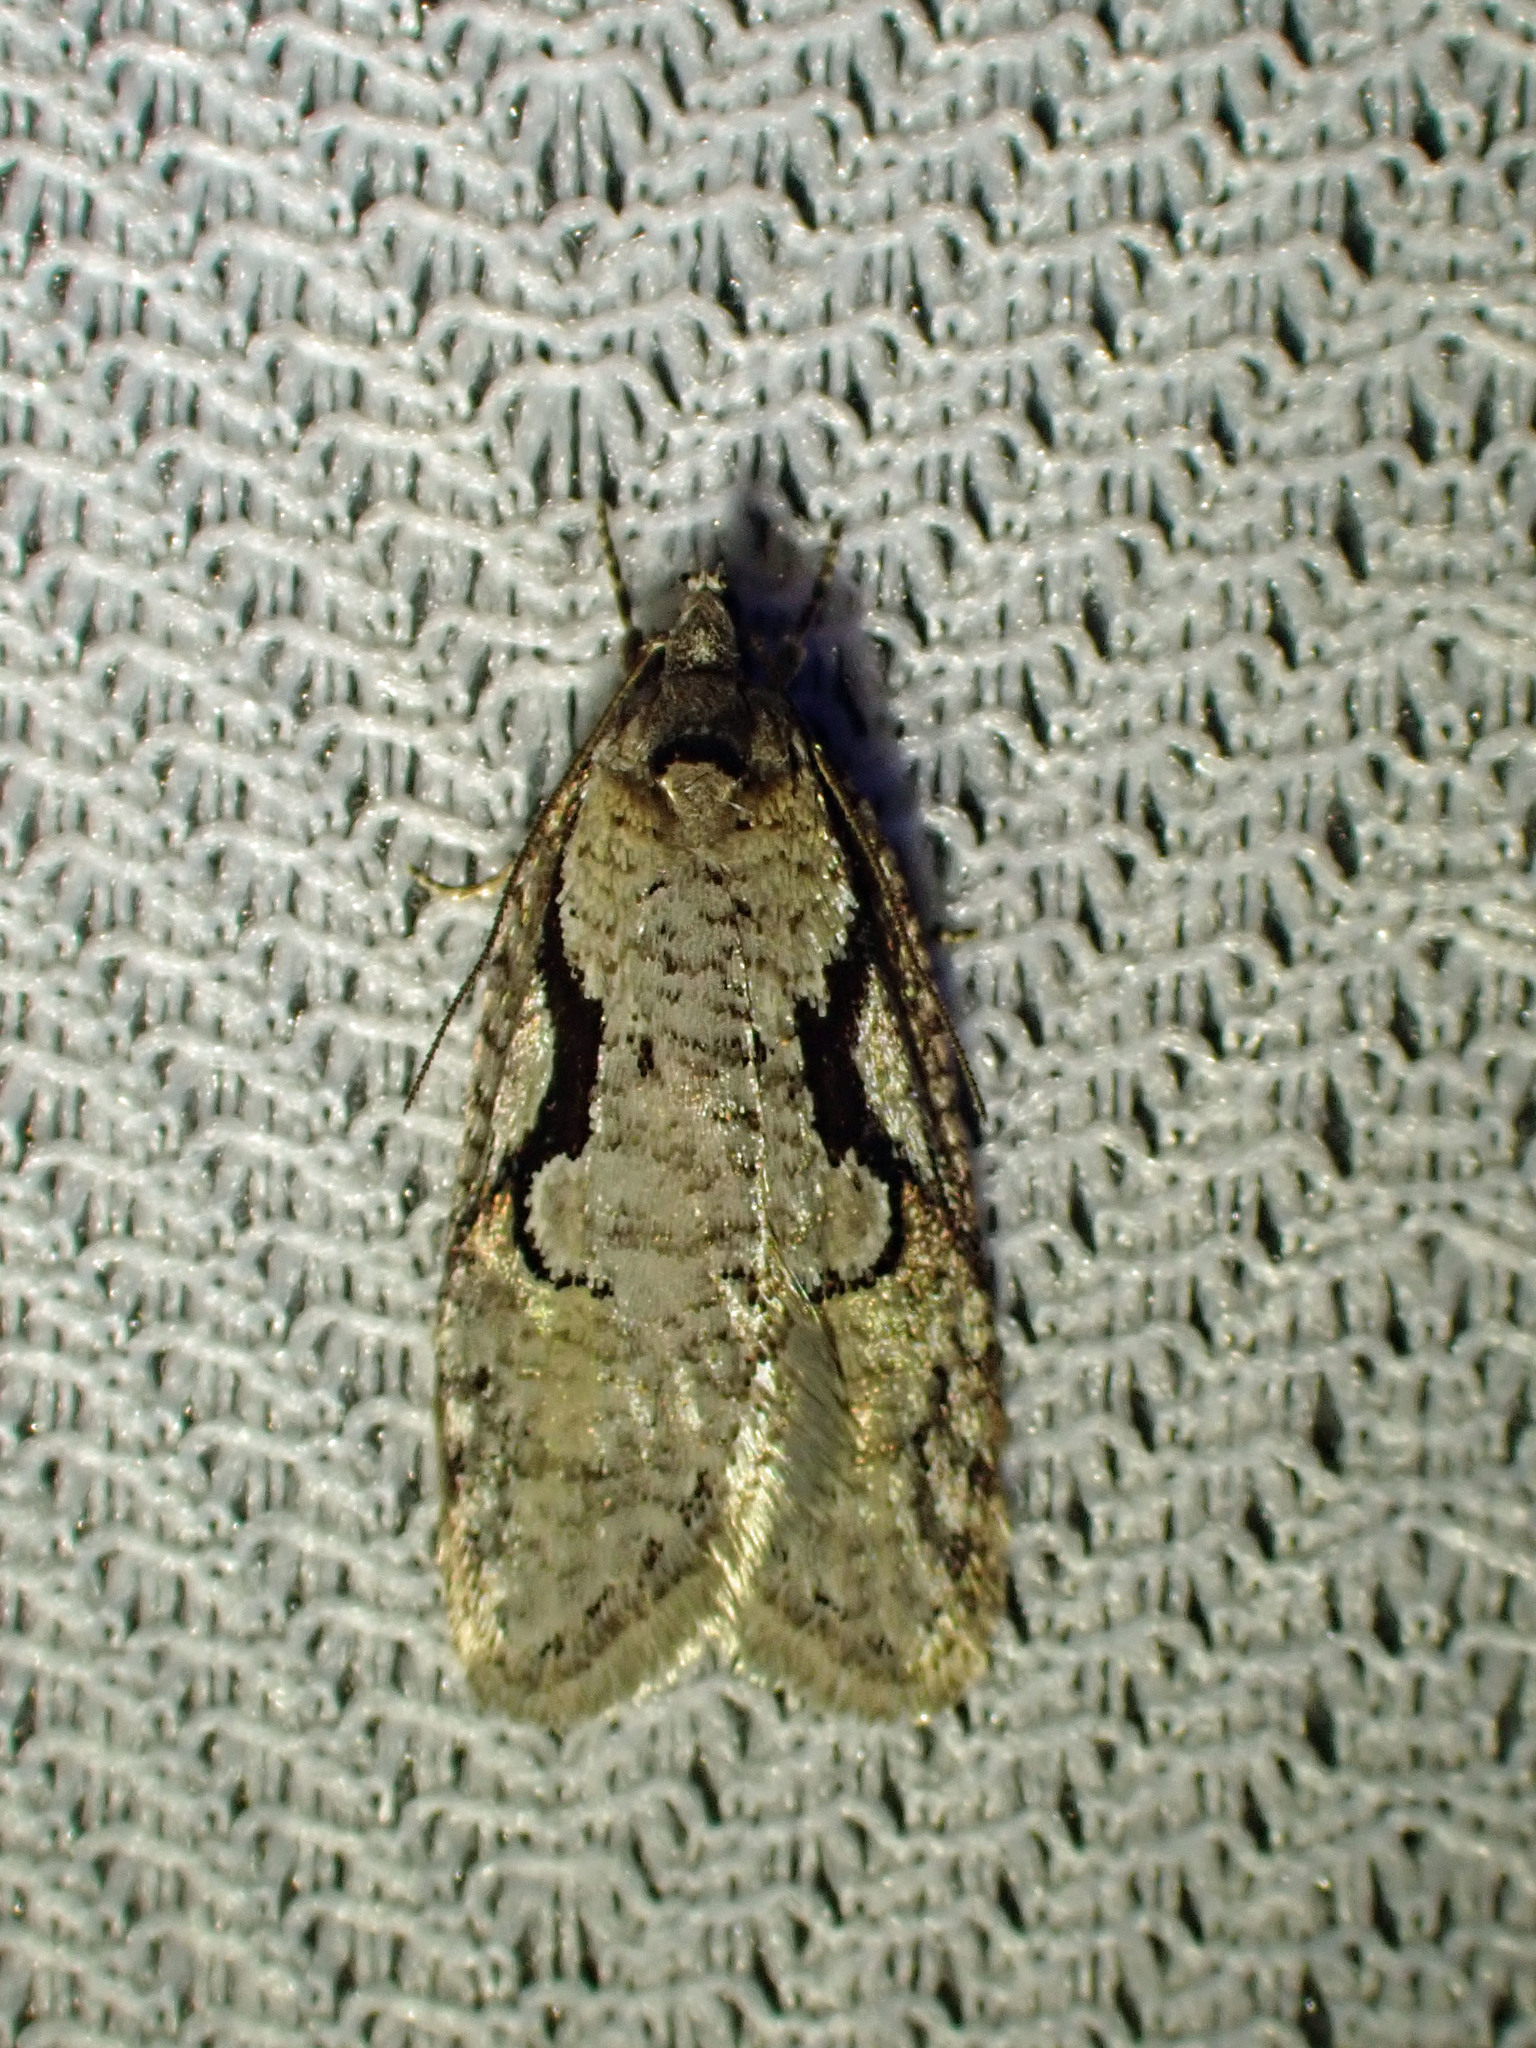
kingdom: Animalia
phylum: Arthropoda
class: Insecta
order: Lepidoptera
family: Depressariidae
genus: Semioscopis
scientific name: Semioscopis packardella
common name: Packard's concealer moth
